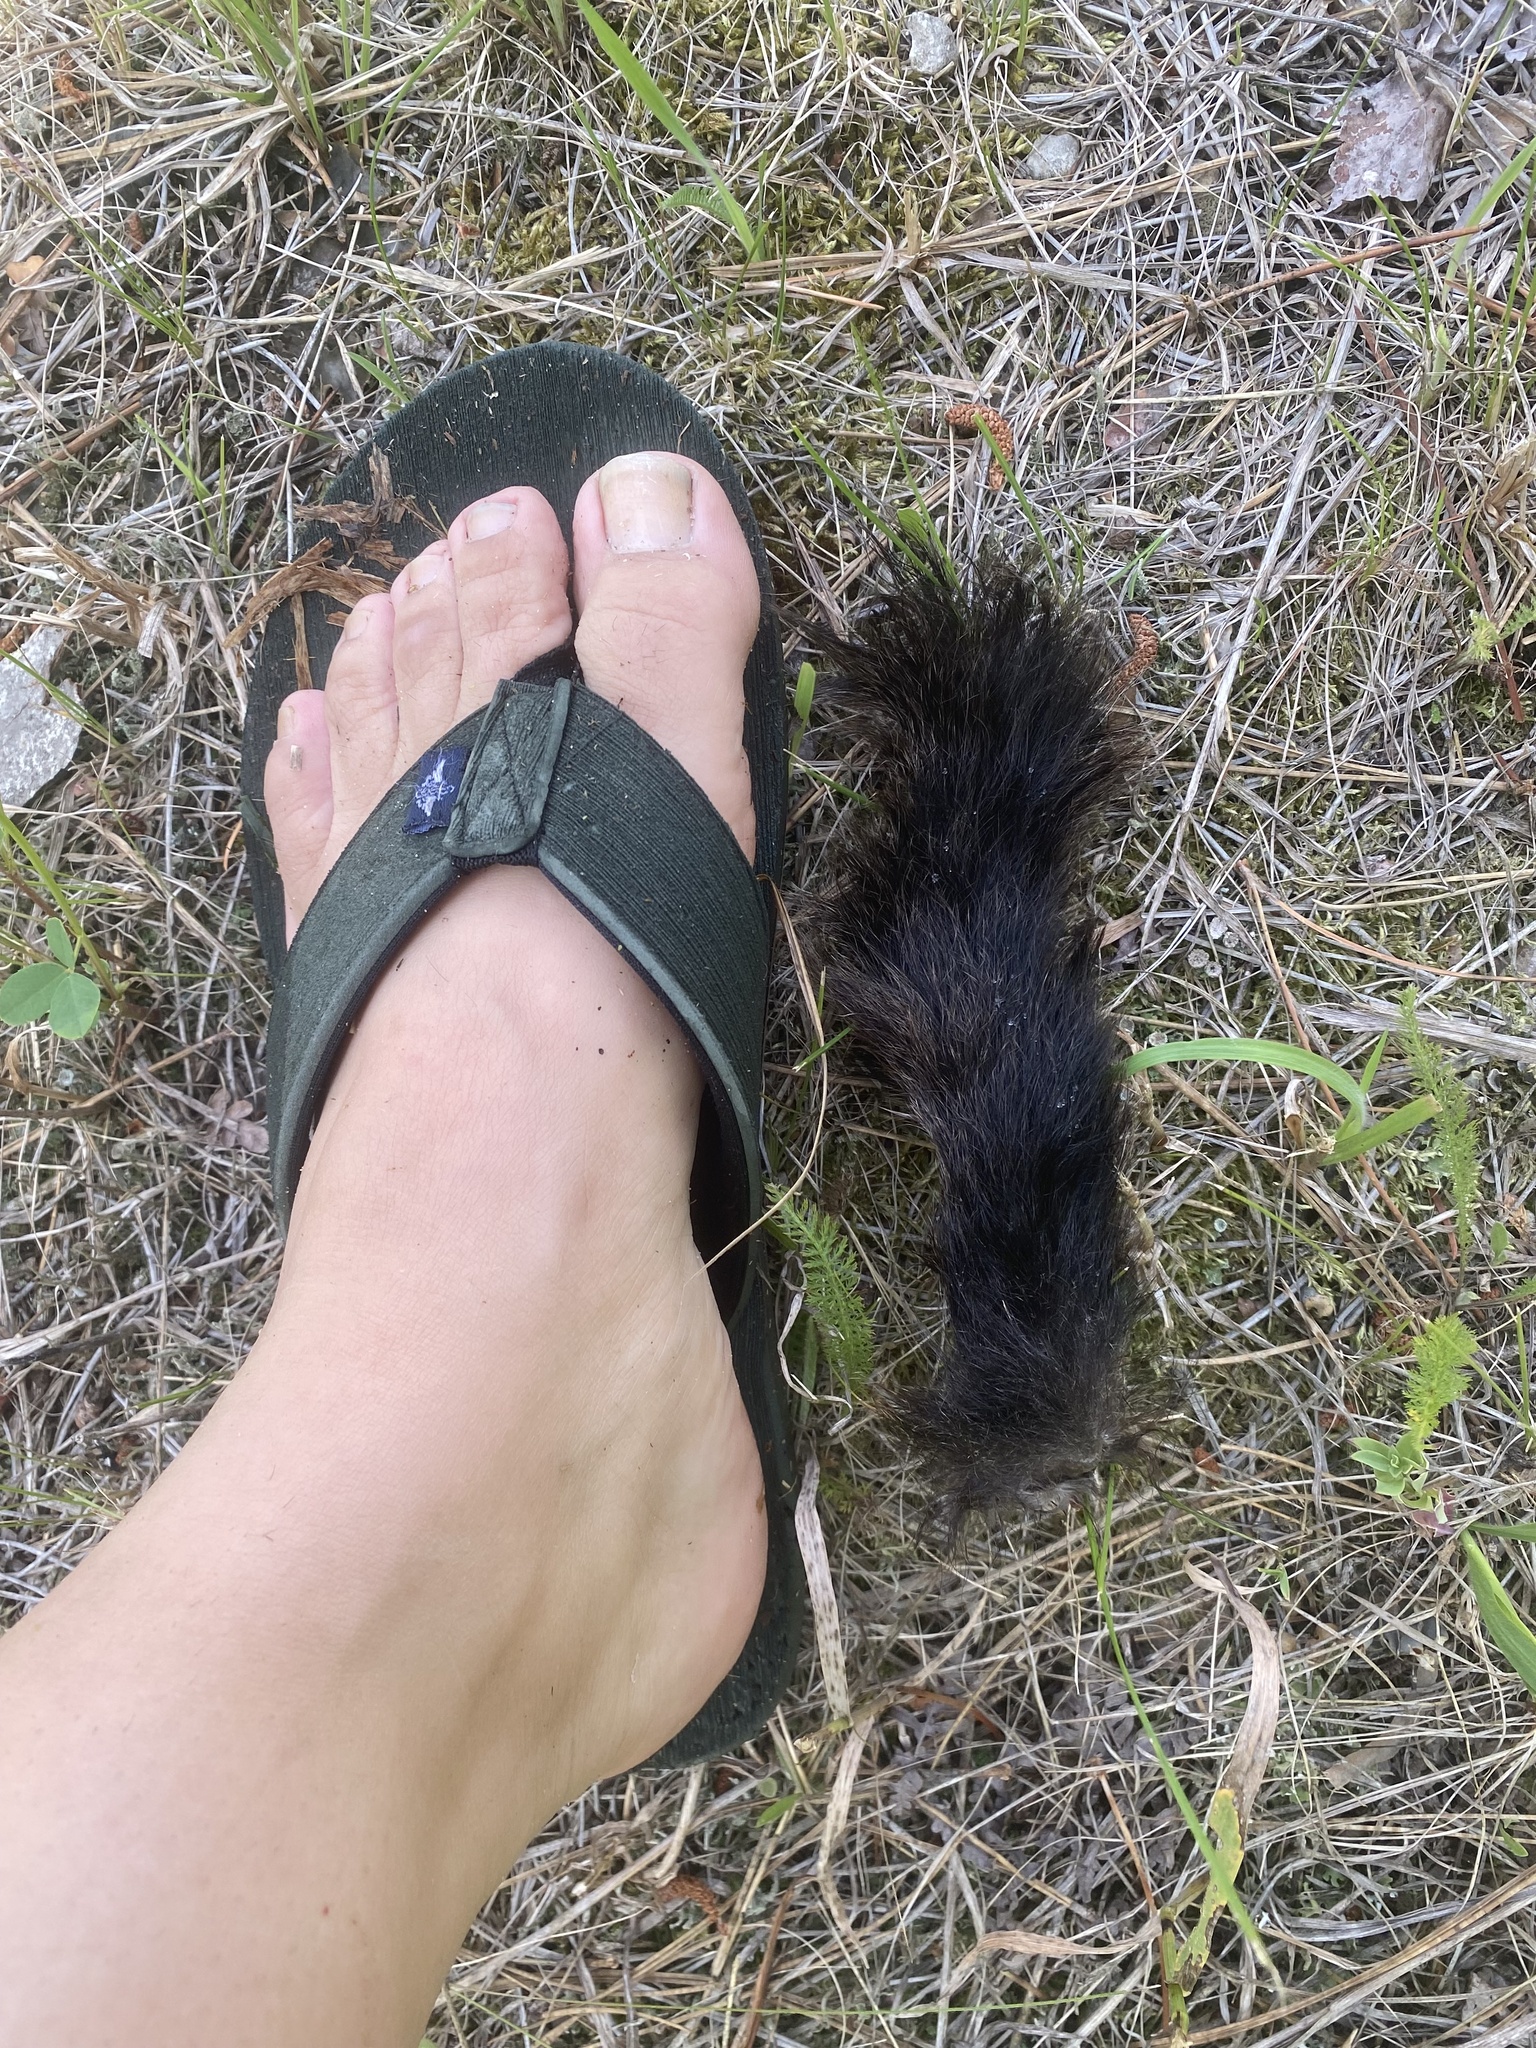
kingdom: Animalia
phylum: Chordata
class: Mammalia
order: Carnivora
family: Mustelidae
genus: Mustela
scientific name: Mustela
